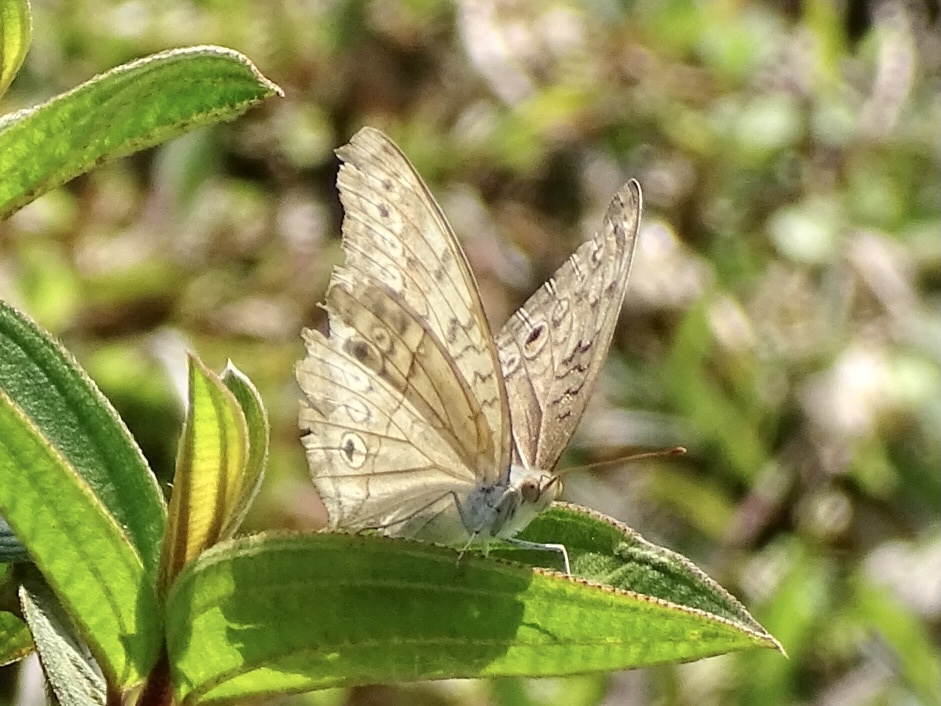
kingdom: Animalia
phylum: Arthropoda
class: Insecta
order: Lepidoptera
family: Nymphalidae
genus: Junonia
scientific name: Junonia atlites
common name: Grey pansy
